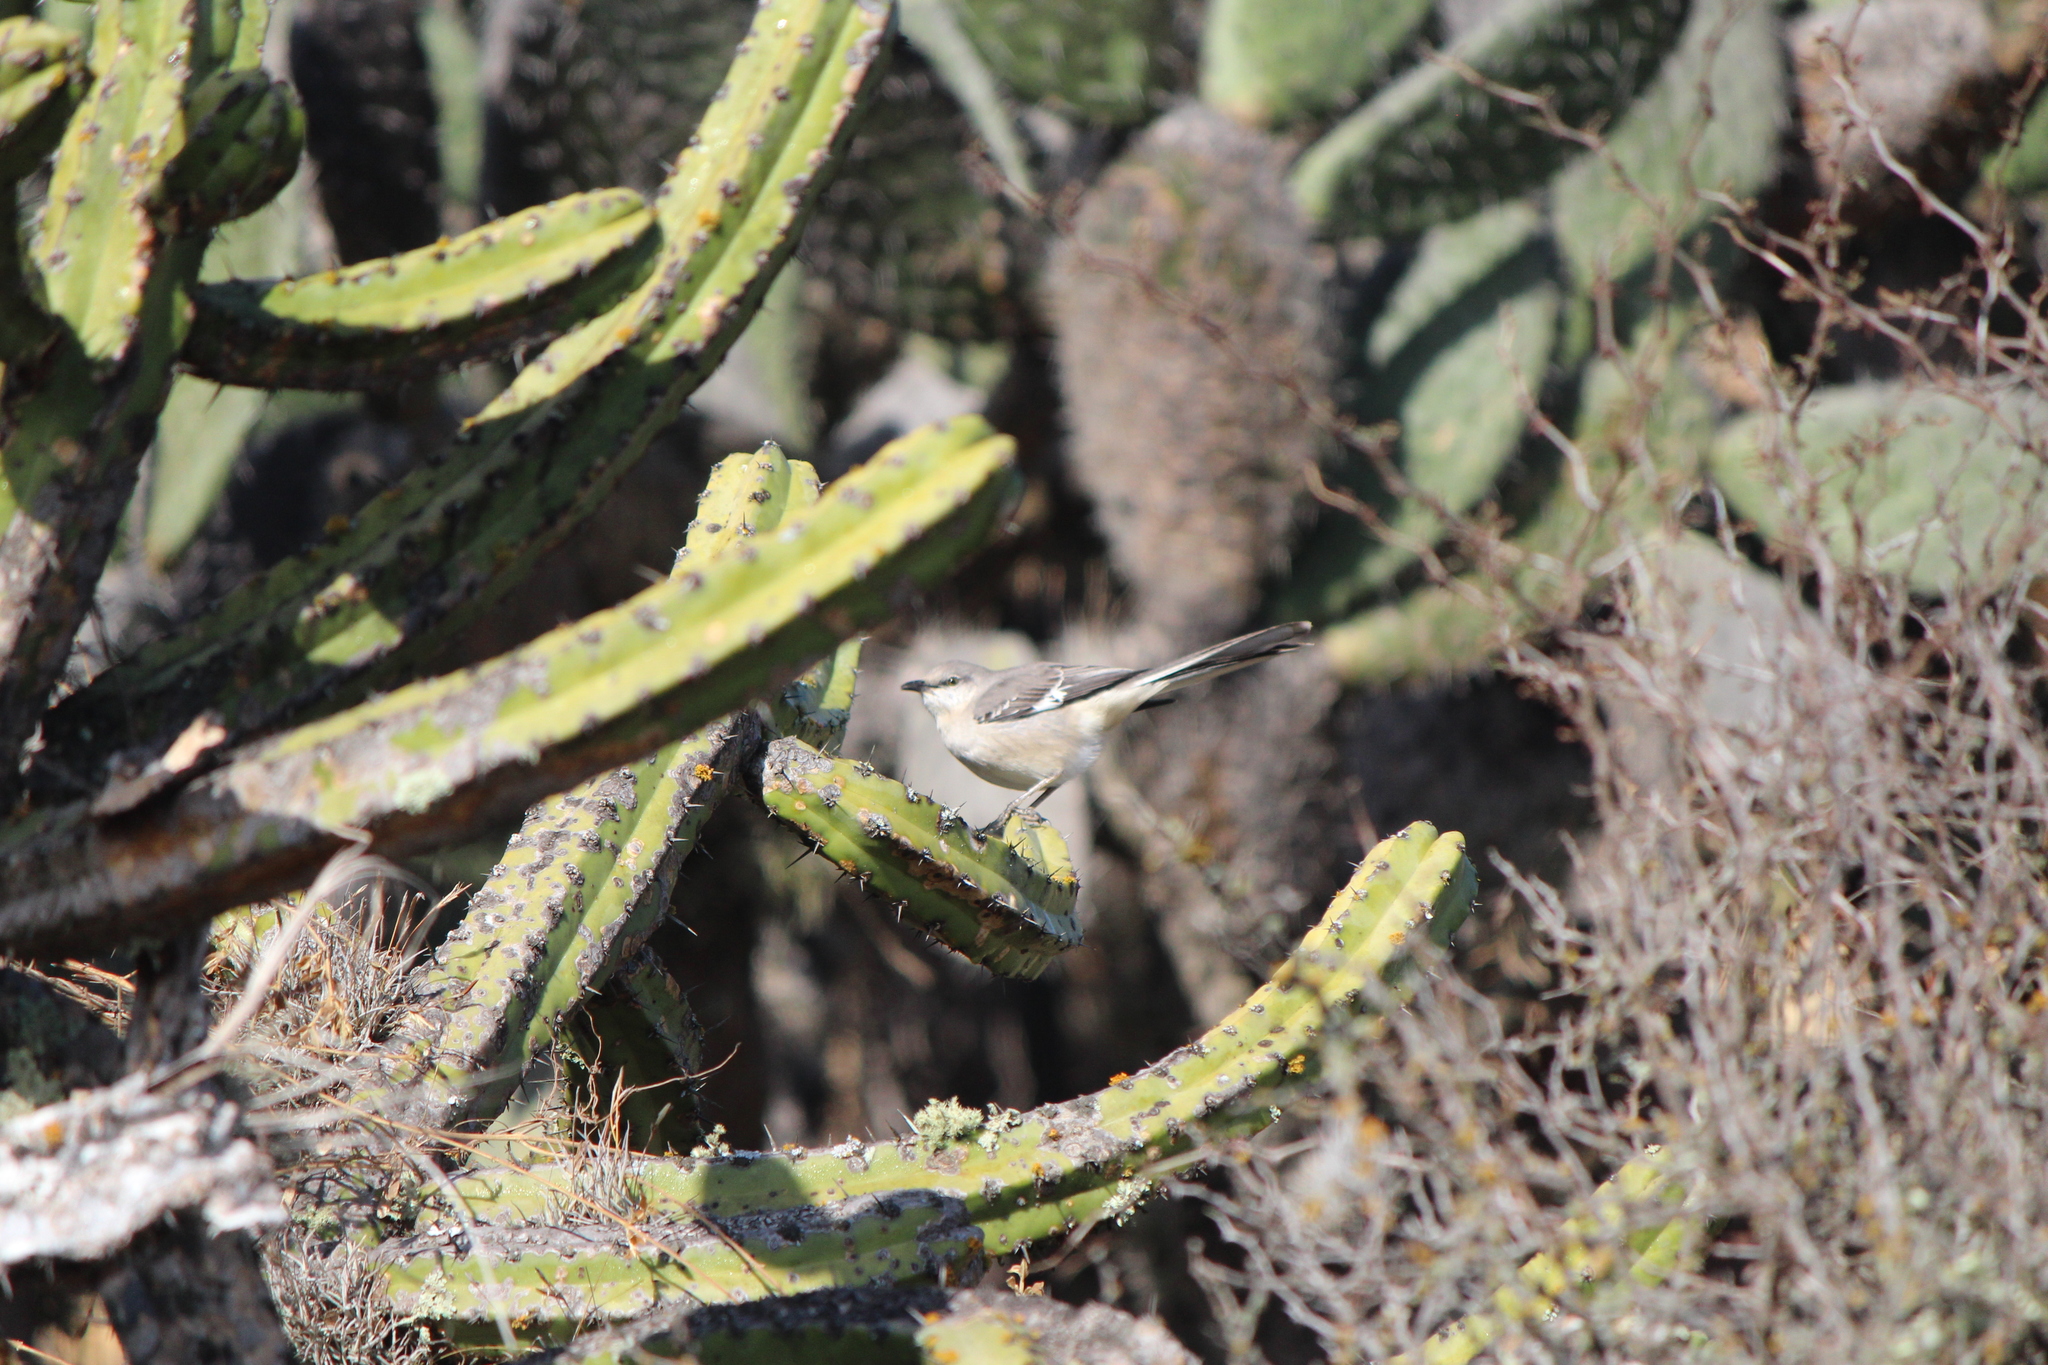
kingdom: Animalia
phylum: Chordata
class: Aves
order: Passeriformes
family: Mimidae
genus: Mimus
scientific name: Mimus polyglottos
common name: Northern mockingbird
